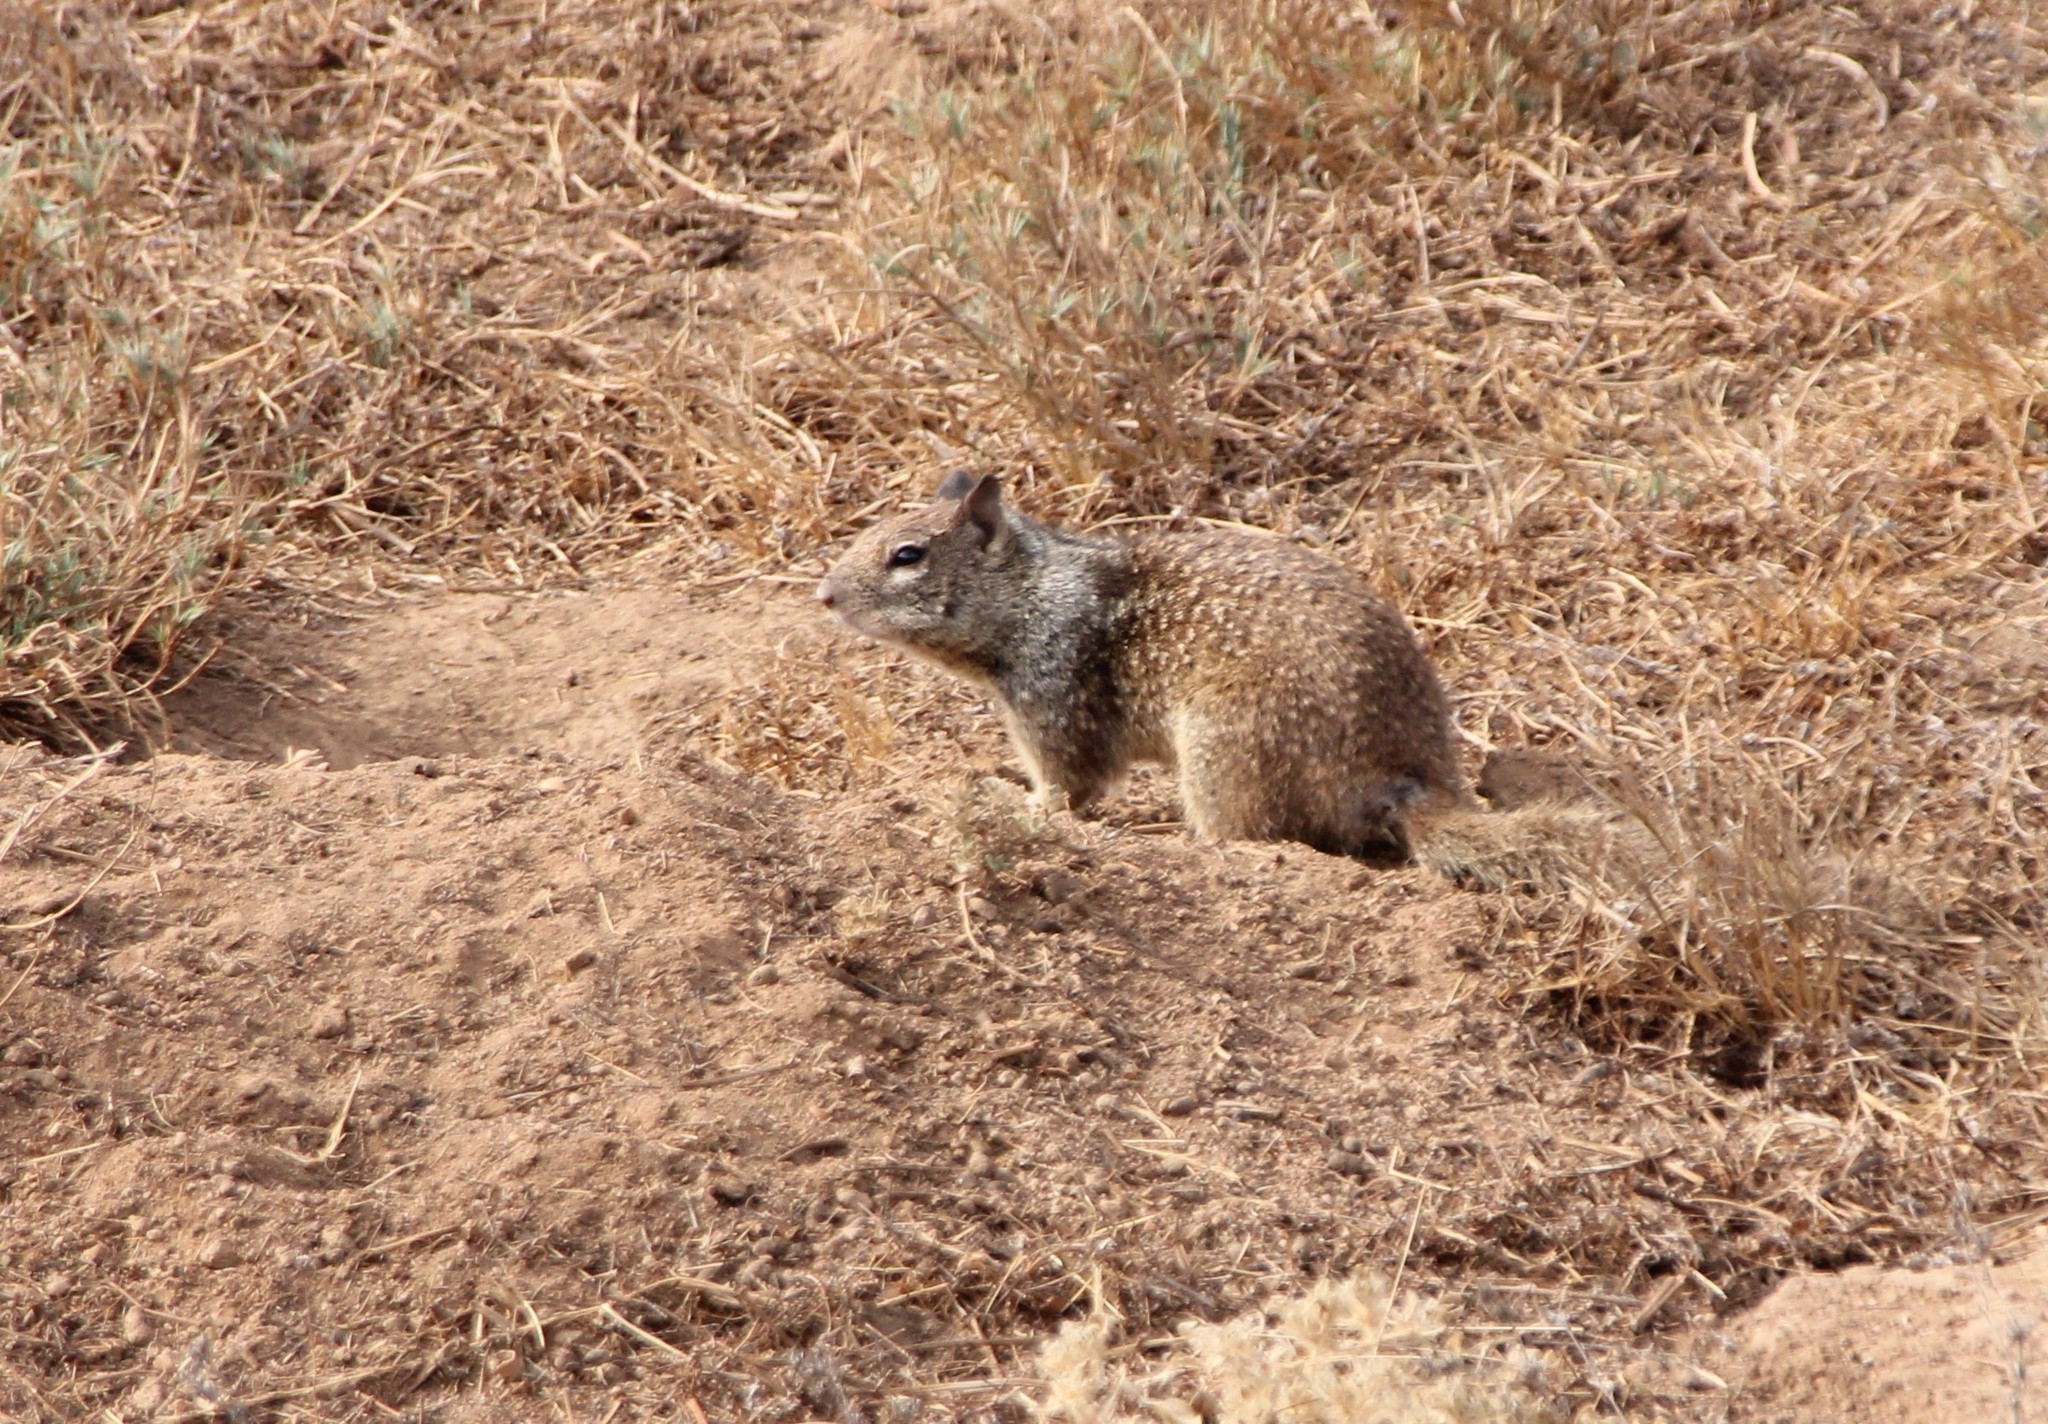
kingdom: Animalia
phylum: Chordata
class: Mammalia
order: Rodentia
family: Sciuridae
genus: Otospermophilus
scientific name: Otospermophilus beecheyi
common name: California ground squirrel
